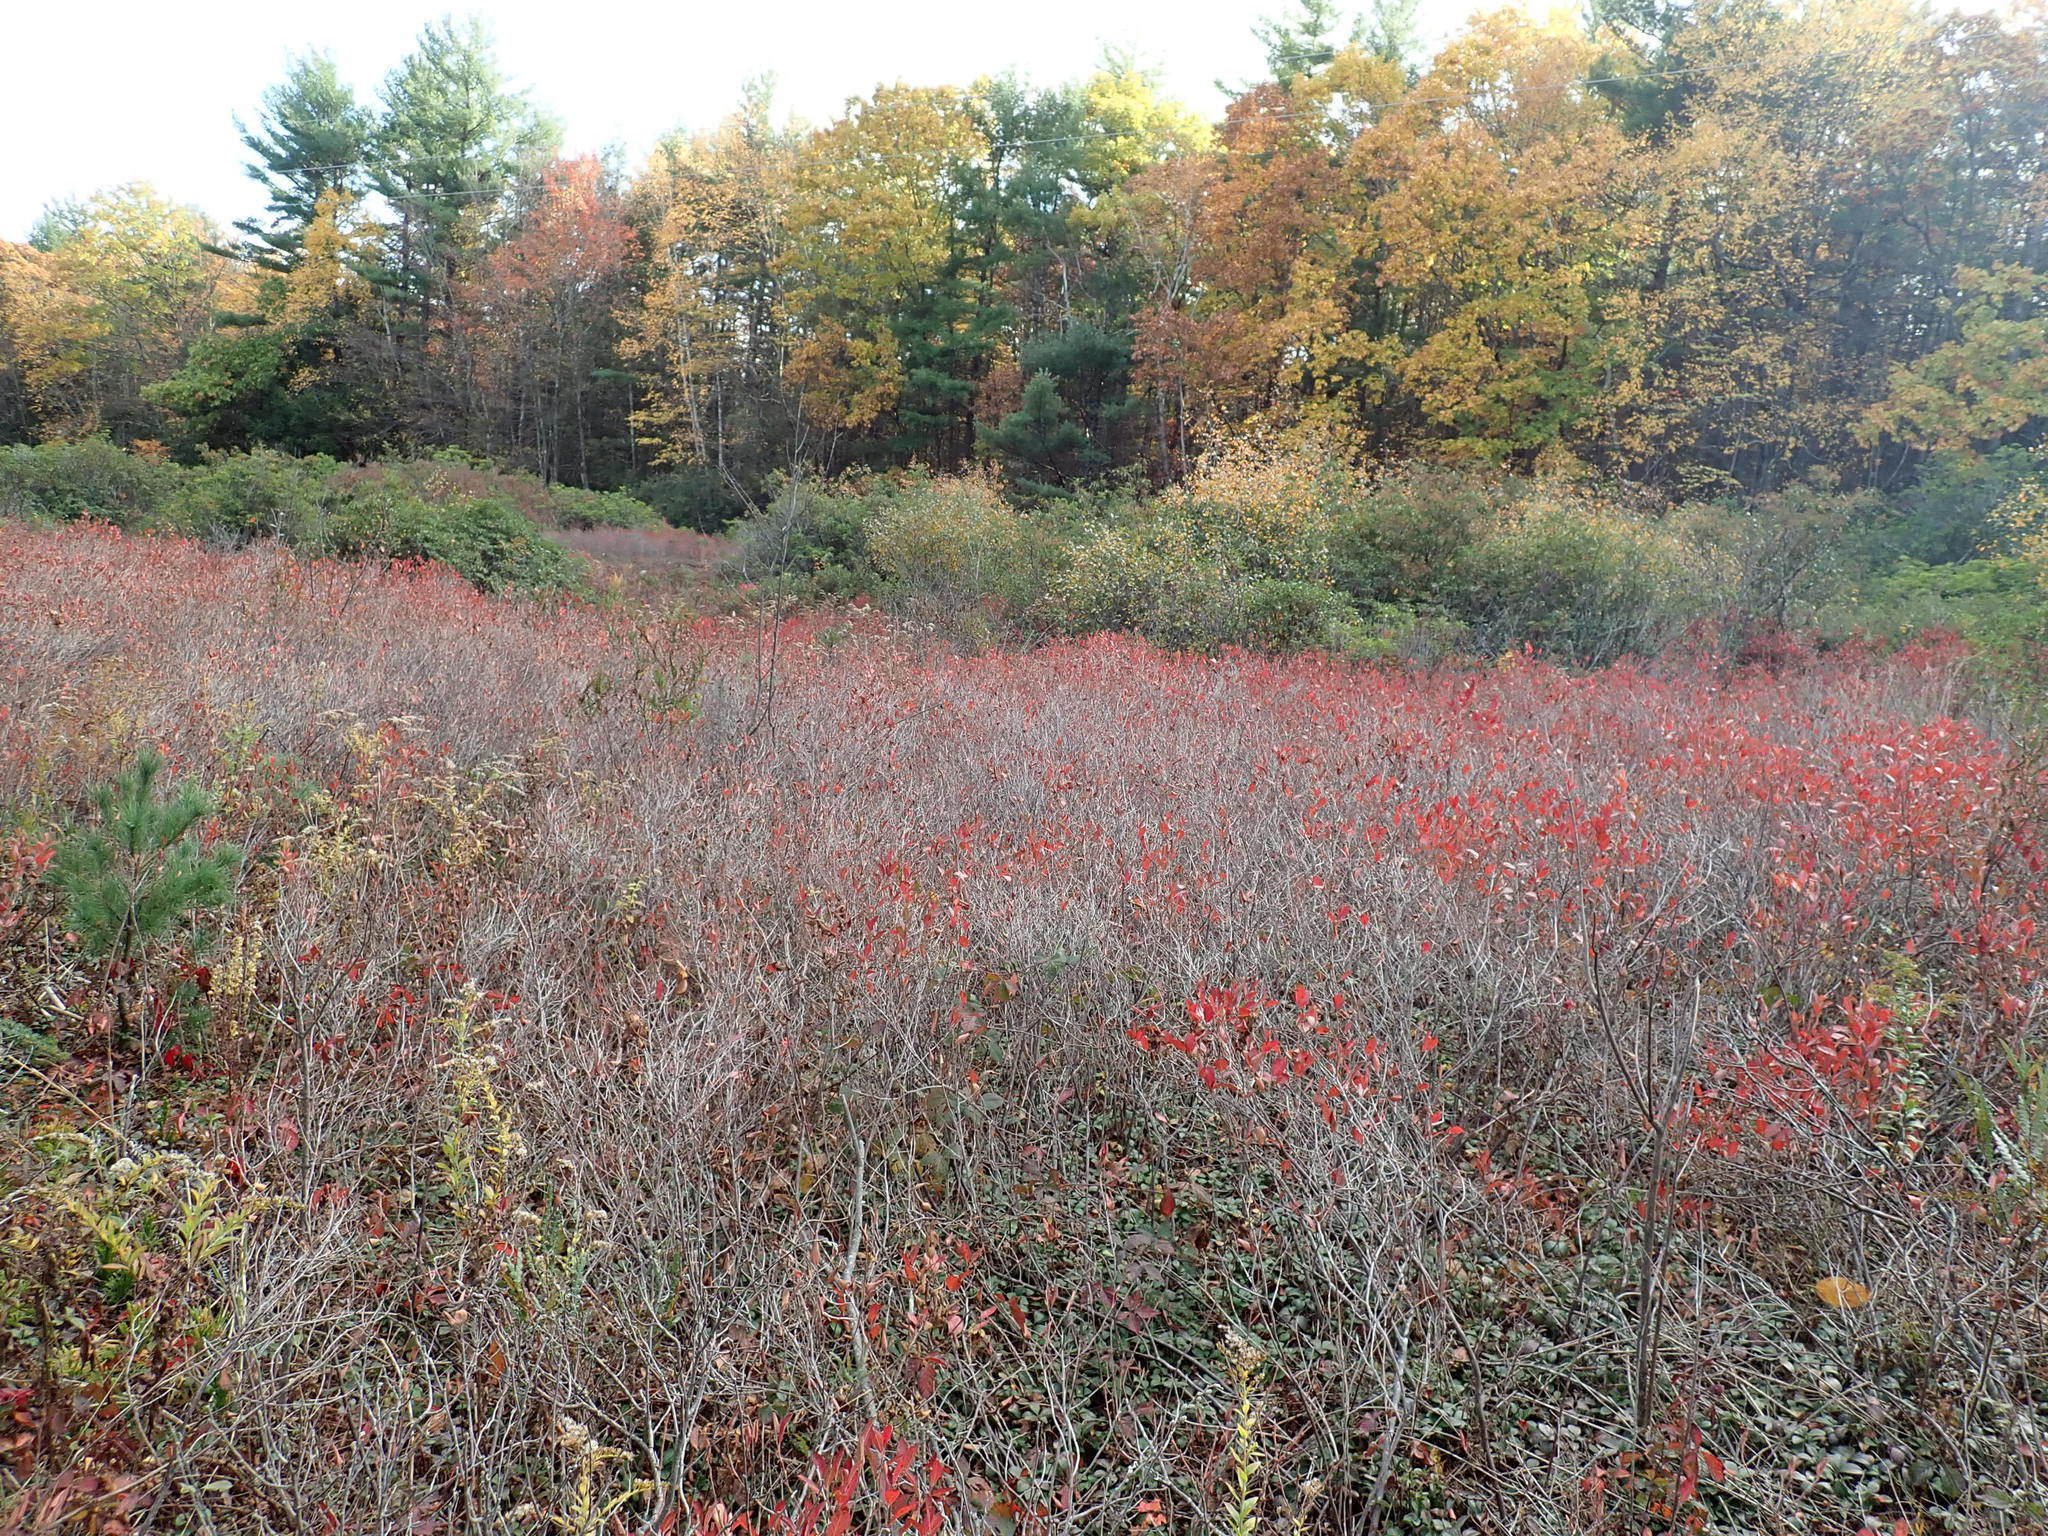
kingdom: Plantae
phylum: Tracheophyta
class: Magnoliopsida
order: Ericales
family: Ericaceae
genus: Gaylussacia
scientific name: Gaylussacia baccata
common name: Black huckleberry
